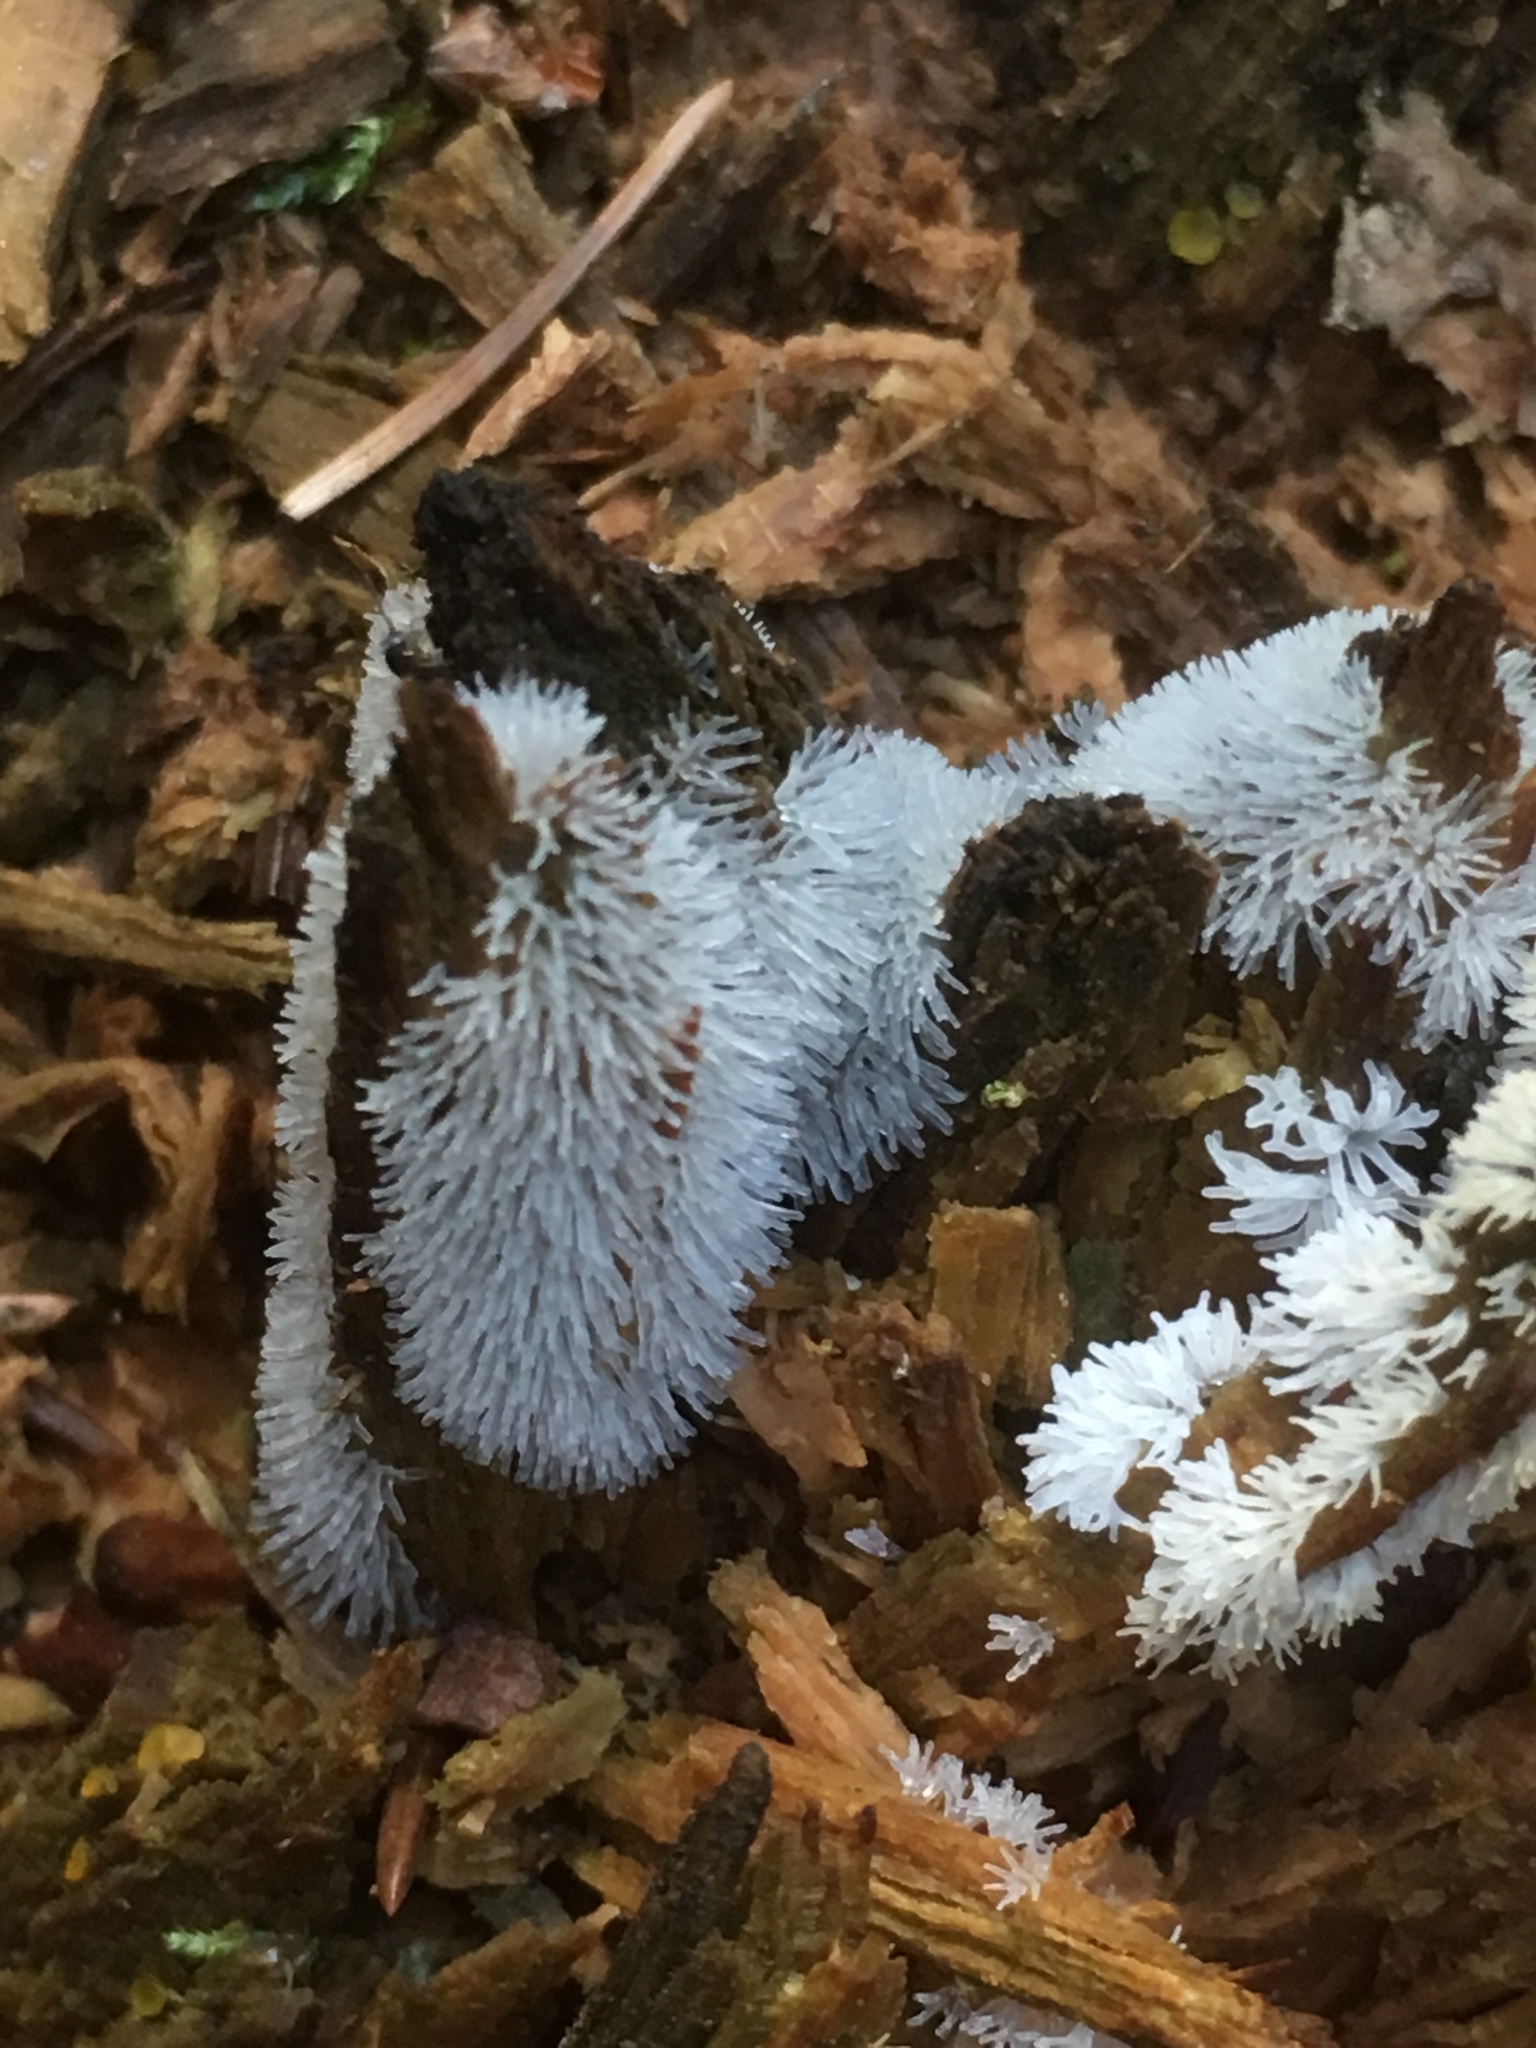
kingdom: Protozoa
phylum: Mycetozoa
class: Protosteliomycetes
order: Ceratiomyxales
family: Ceratiomyxaceae
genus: Ceratiomyxa
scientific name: Ceratiomyxa fruticulosa
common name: Honeycomb coral slime mold
